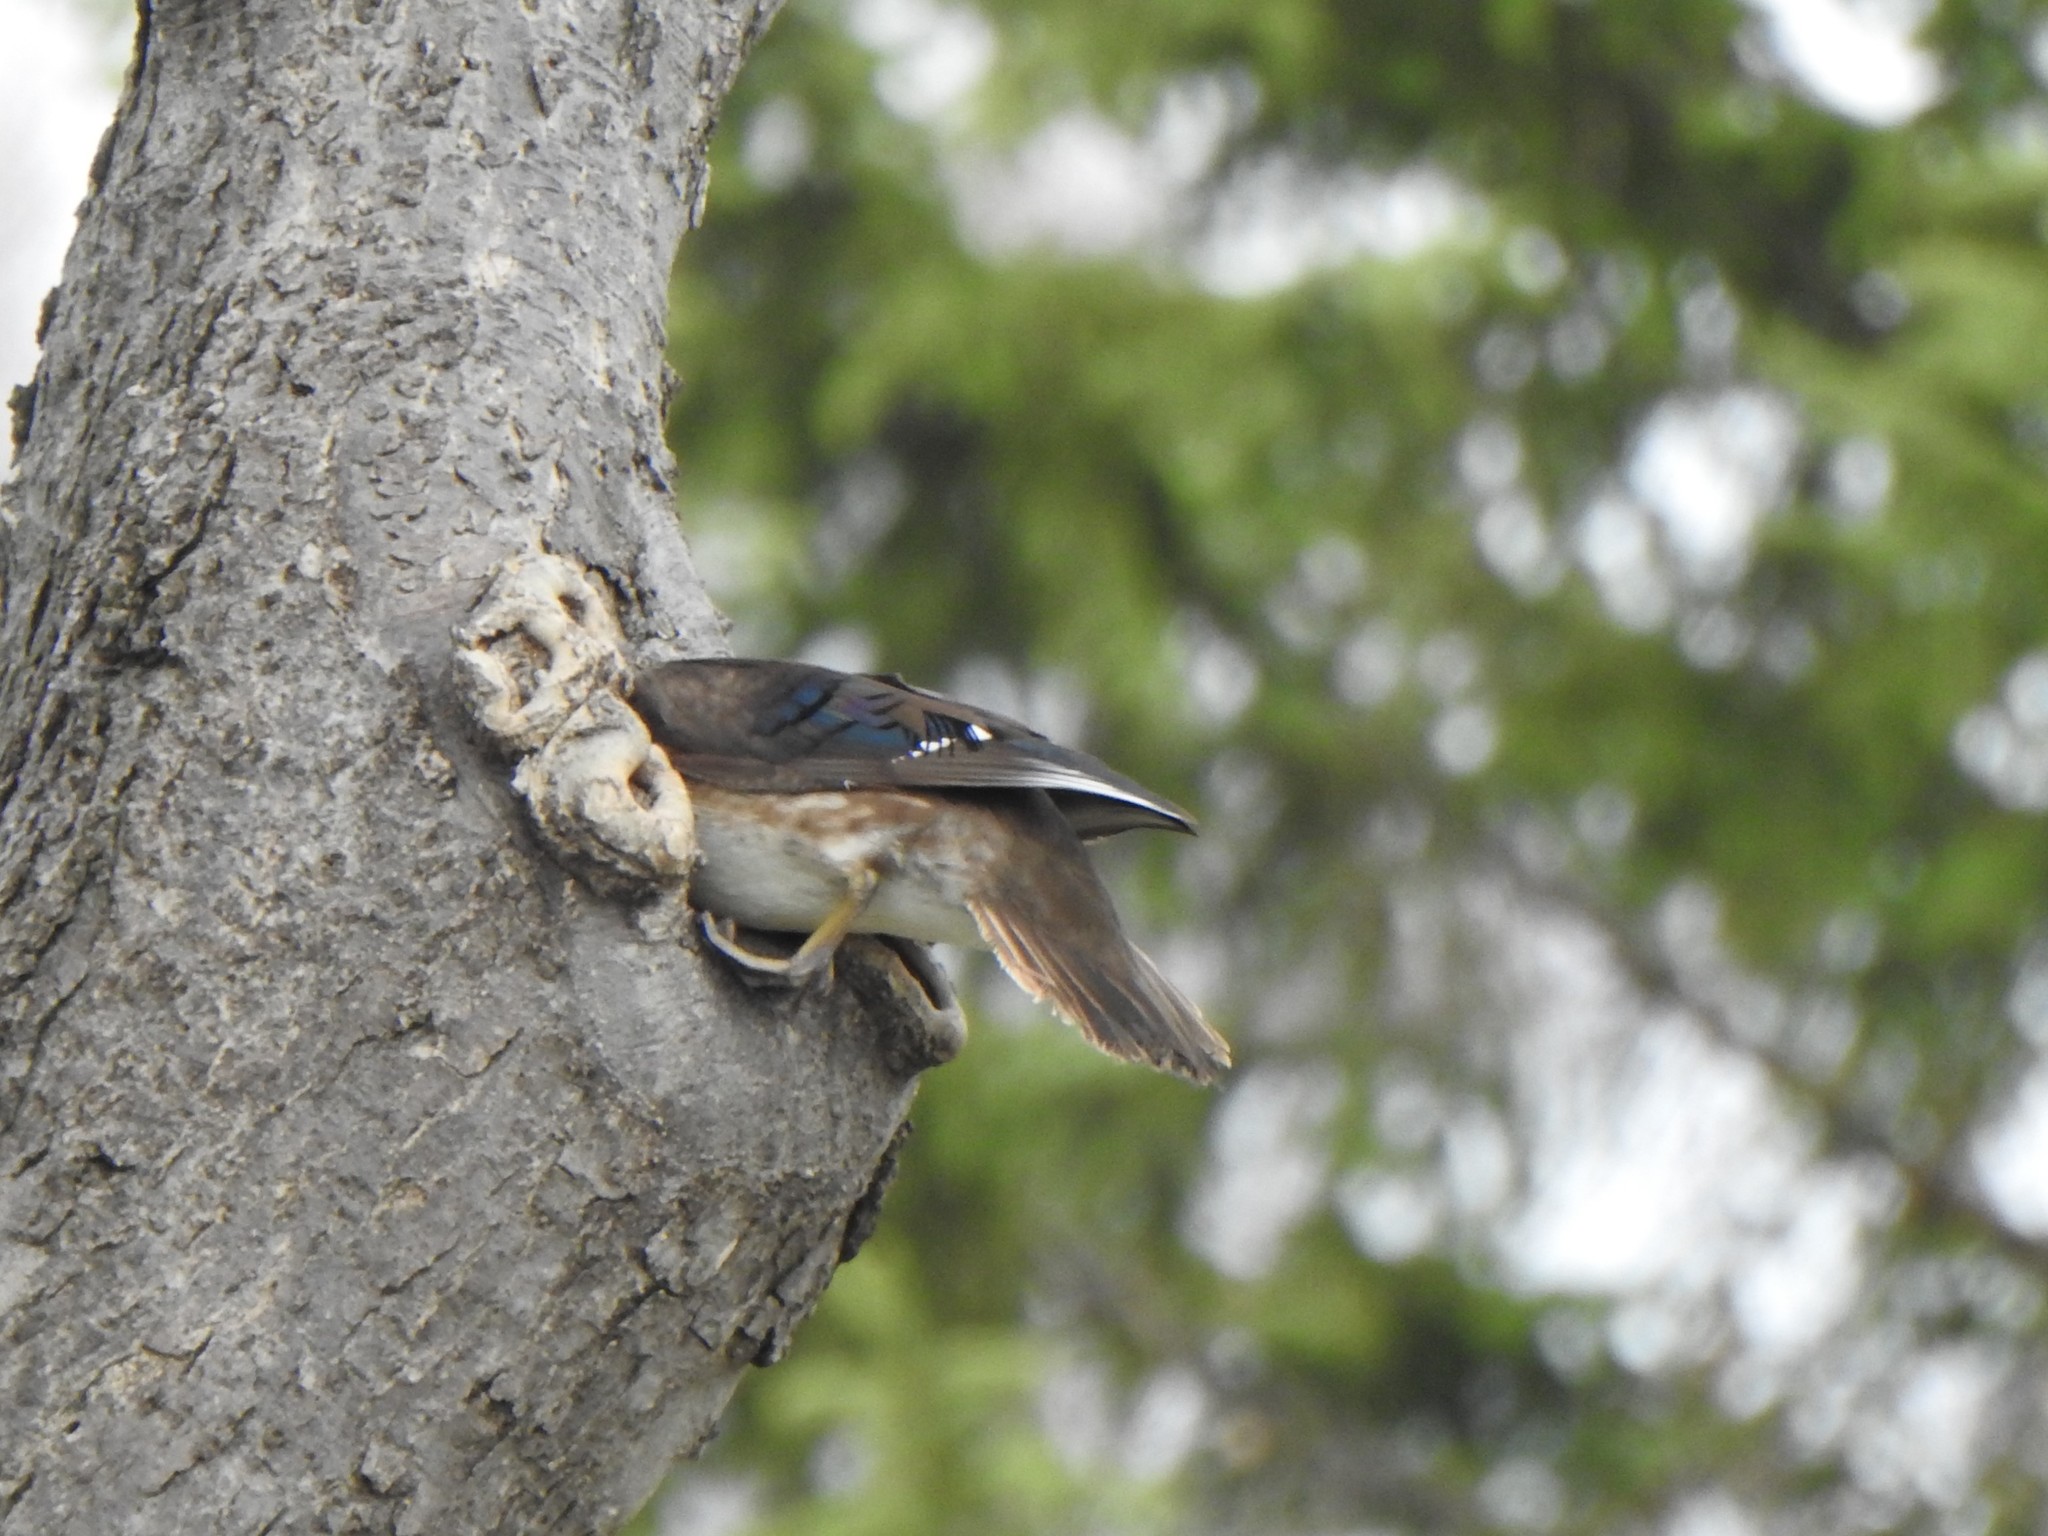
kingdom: Animalia
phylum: Chordata
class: Aves
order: Anseriformes
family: Anatidae
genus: Aix
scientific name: Aix sponsa
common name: Wood duck
